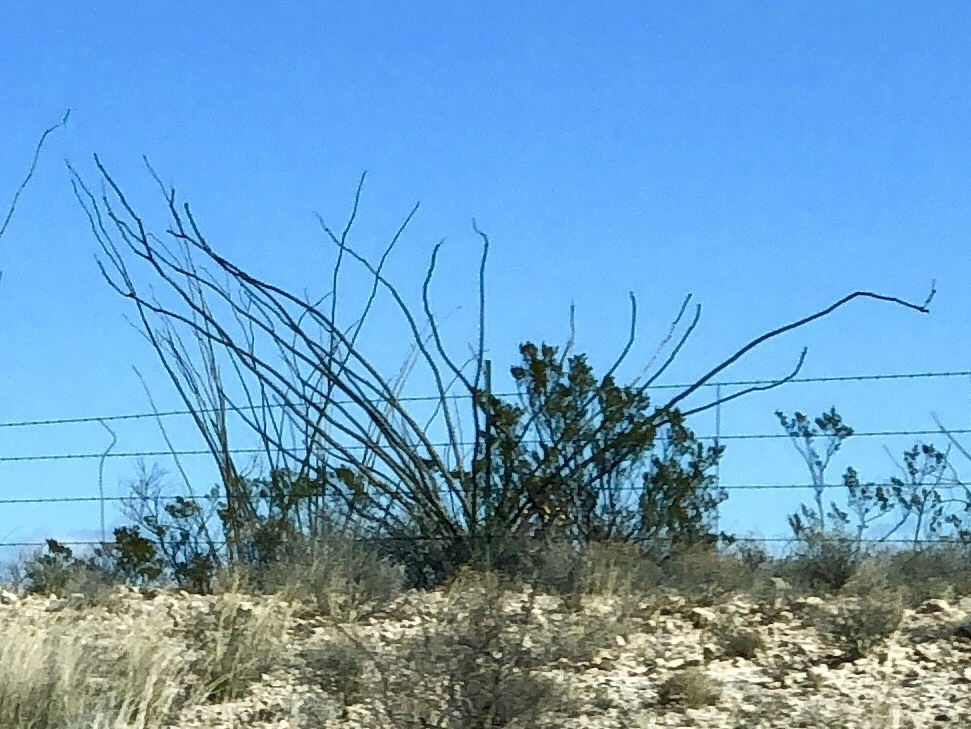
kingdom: Plantae
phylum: Tracheophyta
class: Magnoliopsida
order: Ericales
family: Fouquieriaceae
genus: Fouquieria
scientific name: Fouquieria splendens
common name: Vine-cactus
